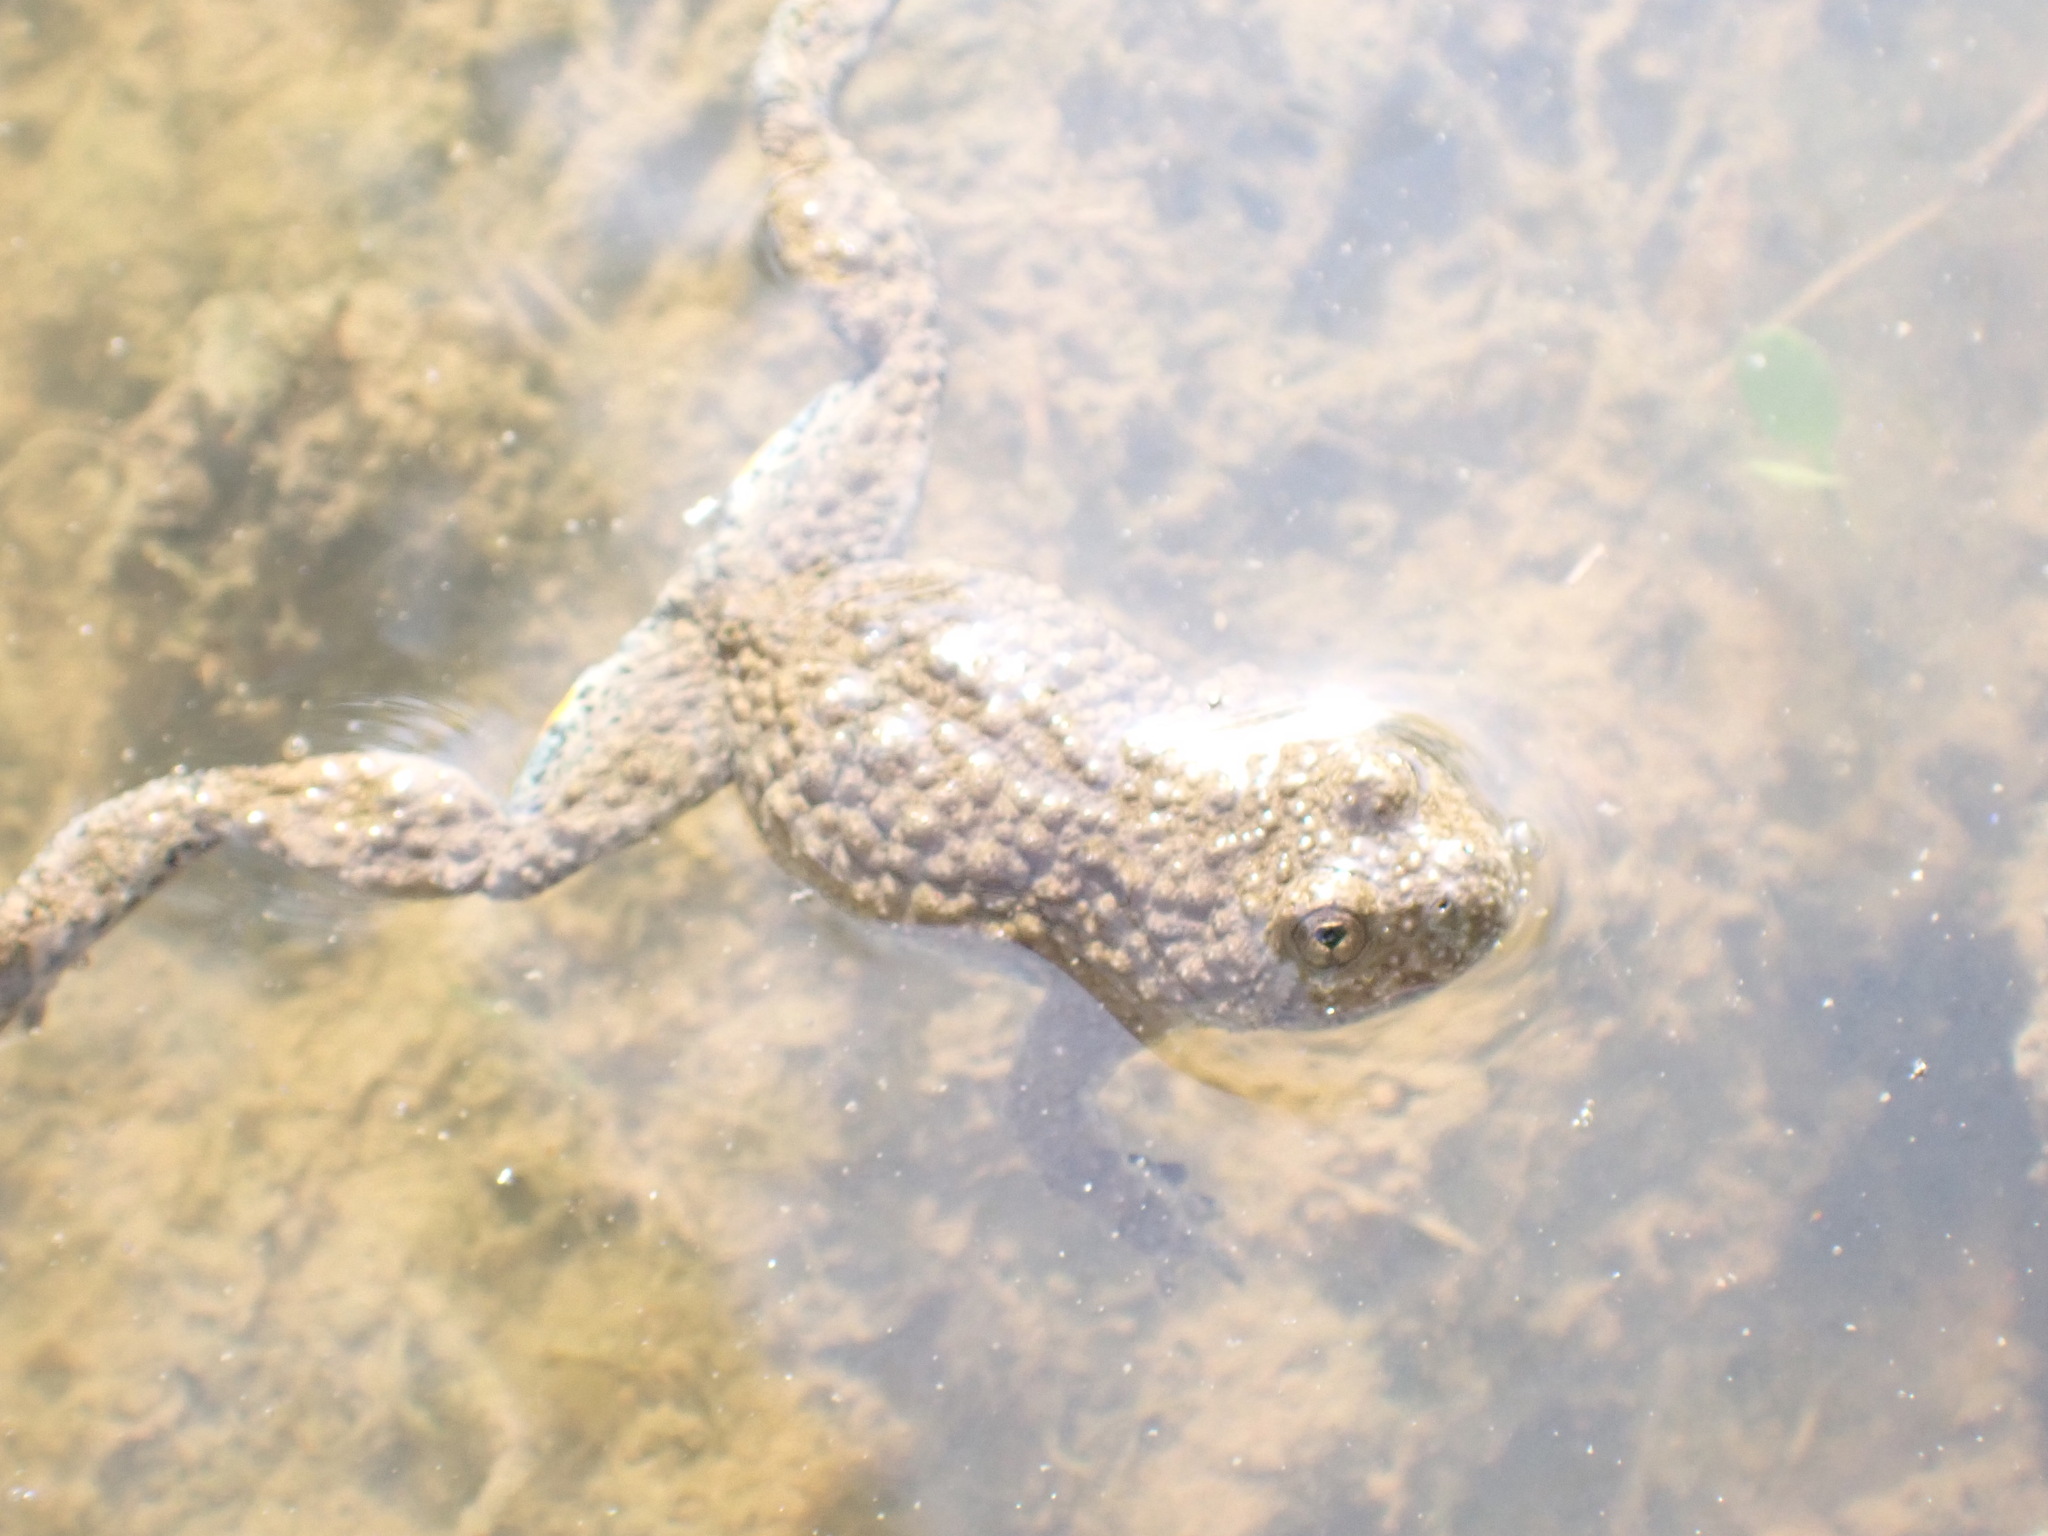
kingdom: Animalia
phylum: Chordata
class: Amphibia
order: Anura
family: Bombinatoridae
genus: Bombina
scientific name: Bombina variegata
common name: Yellow-bellied toad
